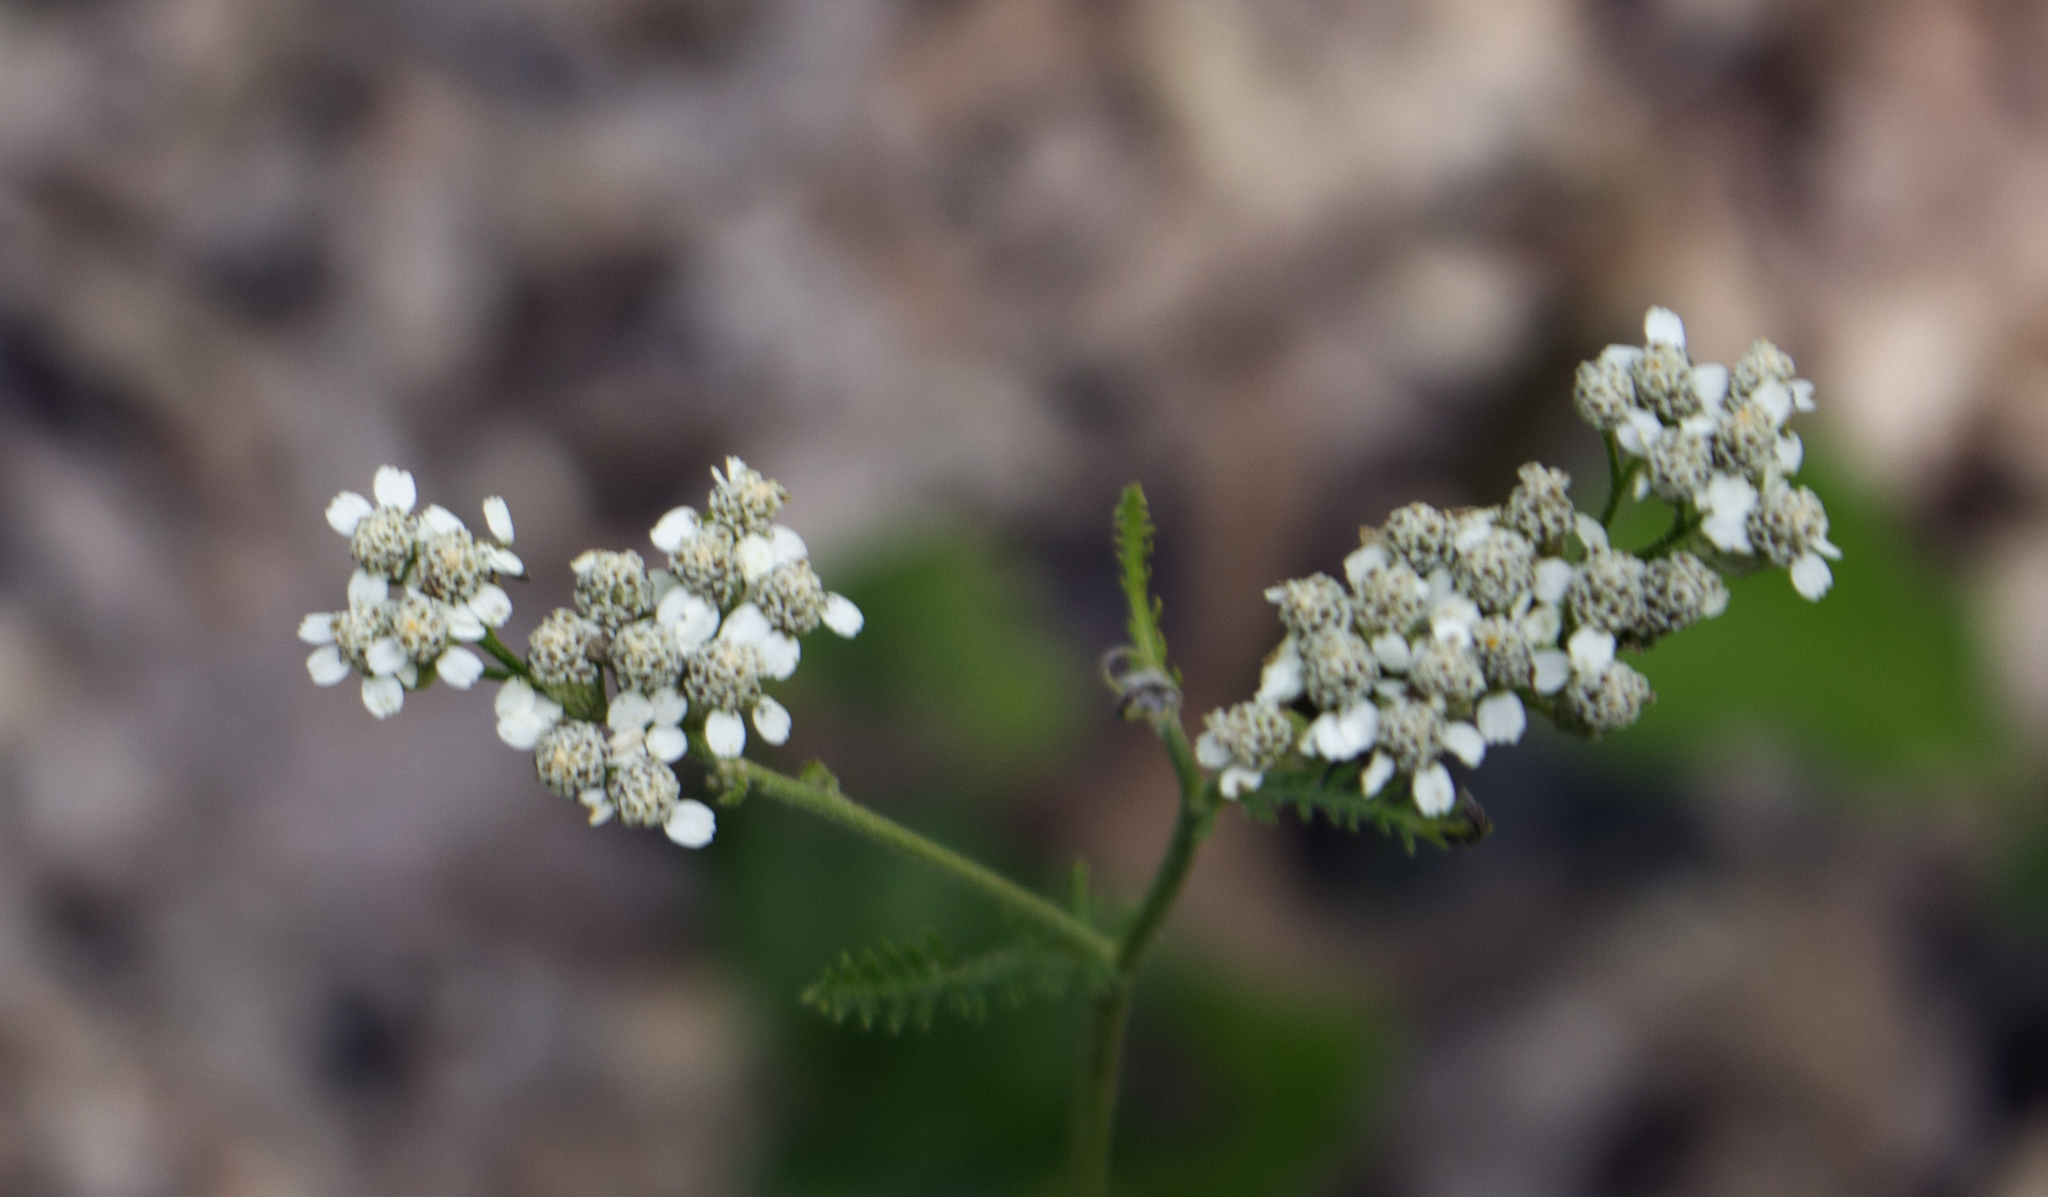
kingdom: Plantae
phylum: Tracheophyta
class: Magnoliopsida
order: Asterales
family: Asteraceae
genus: Achillea
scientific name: Achillea millefolium
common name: Yarrow
